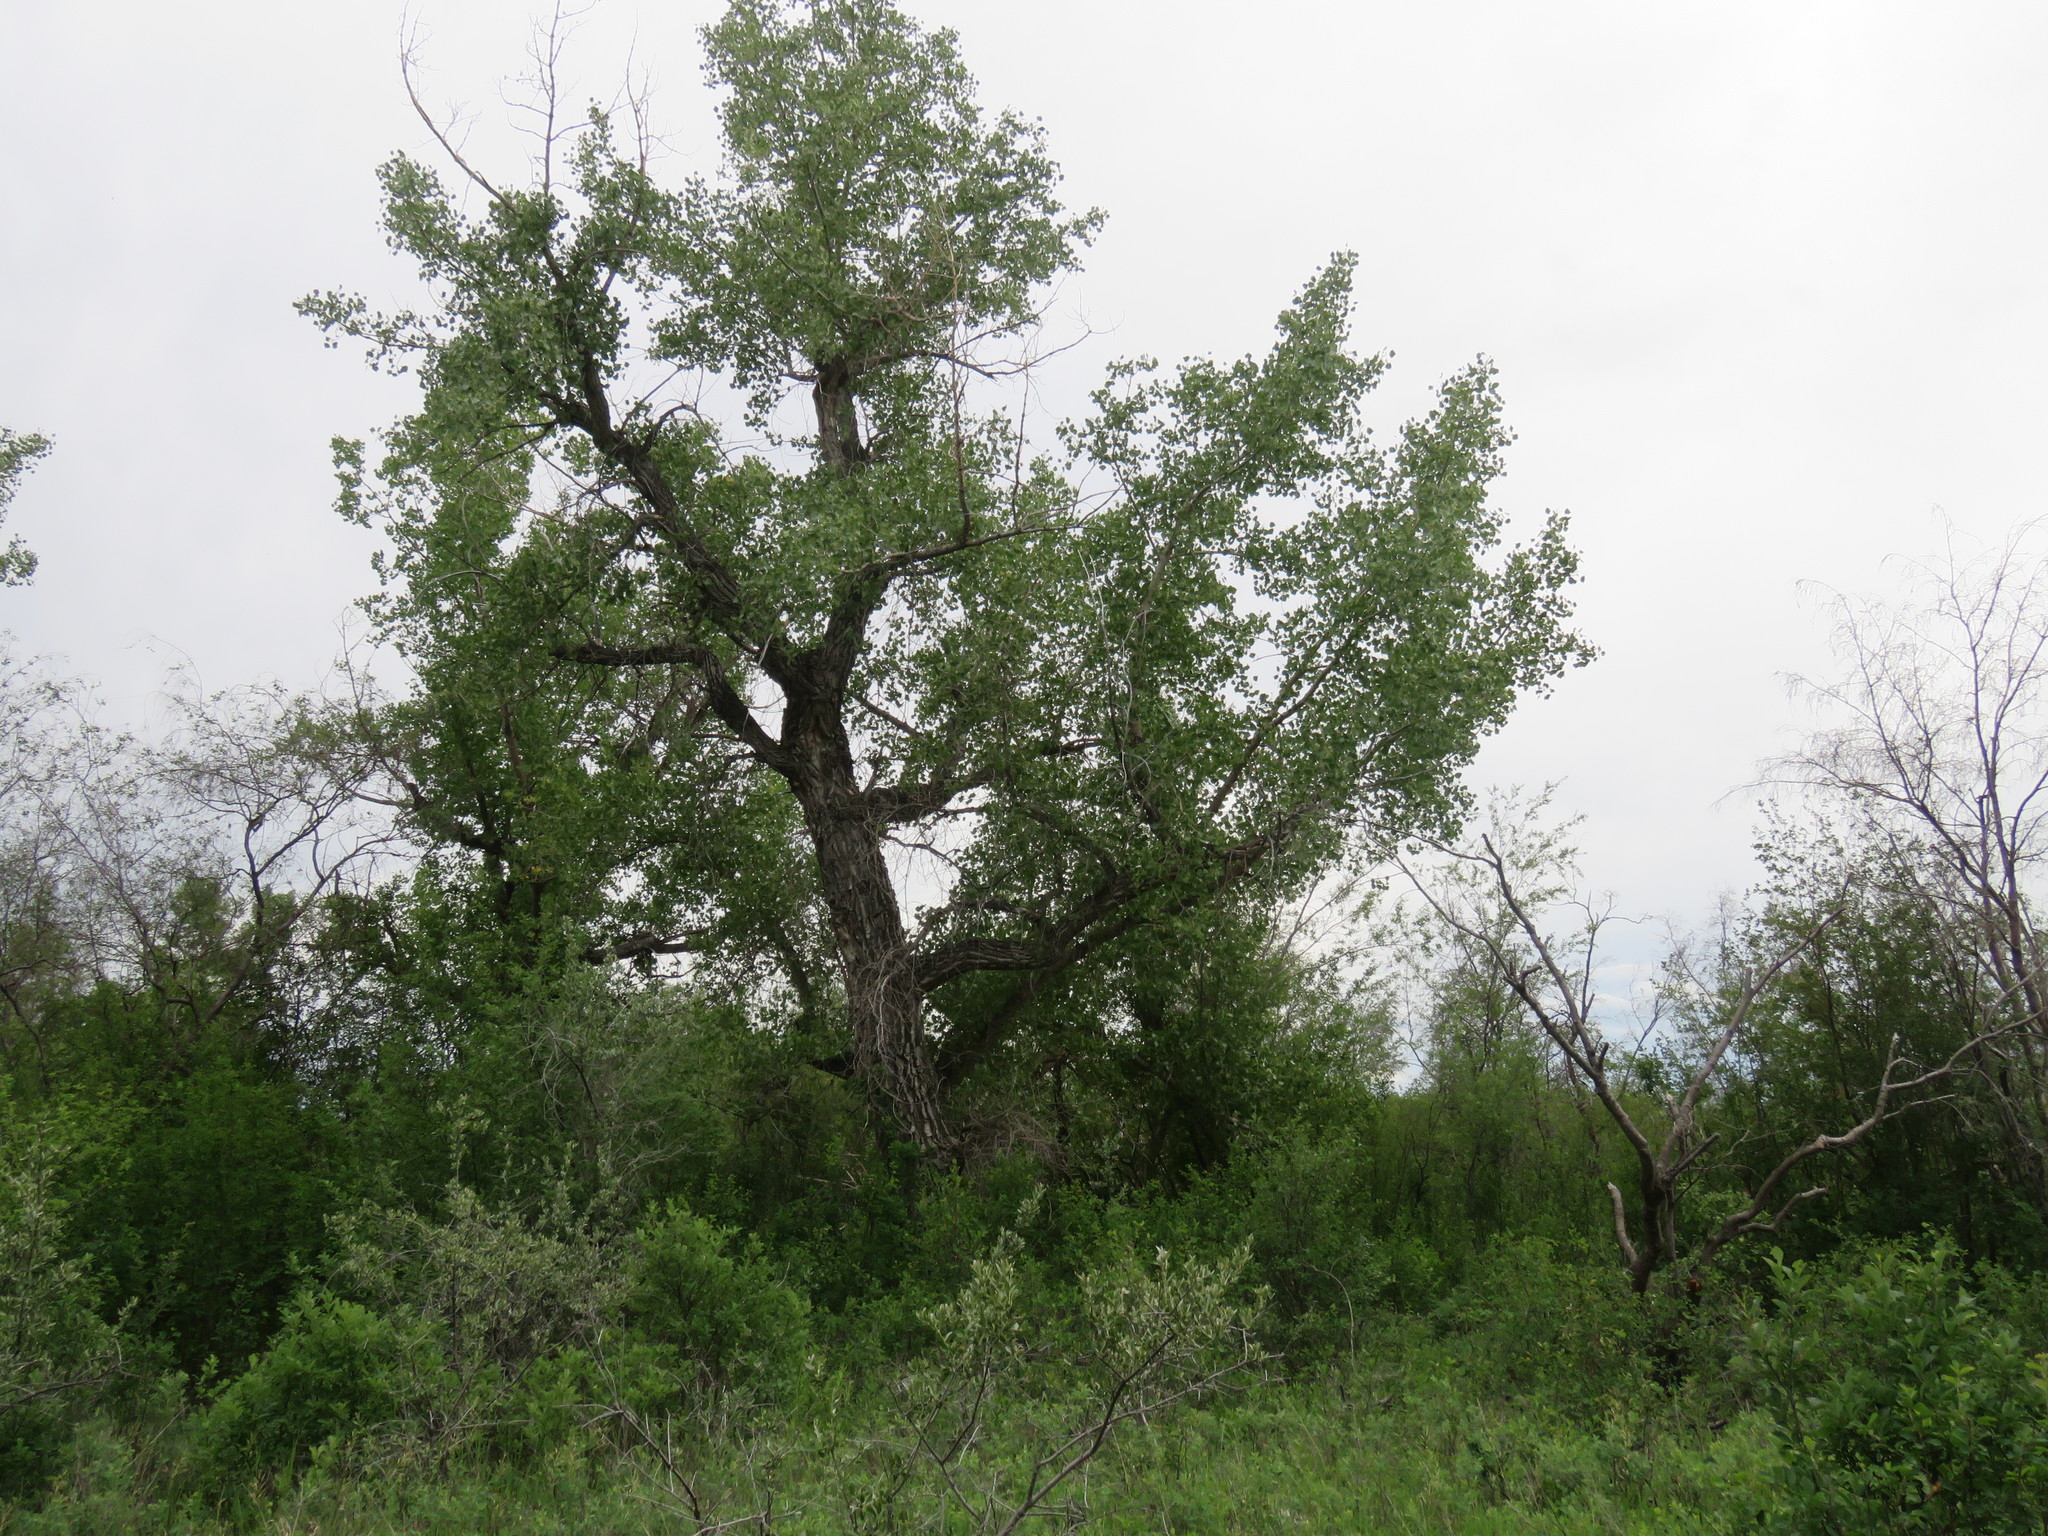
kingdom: Plantae
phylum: Tracheophyta
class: Magnoliopsida
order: Malpighiales
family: Salicaceae
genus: Populus
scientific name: Populus deltoides
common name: Eastern cottonwood
